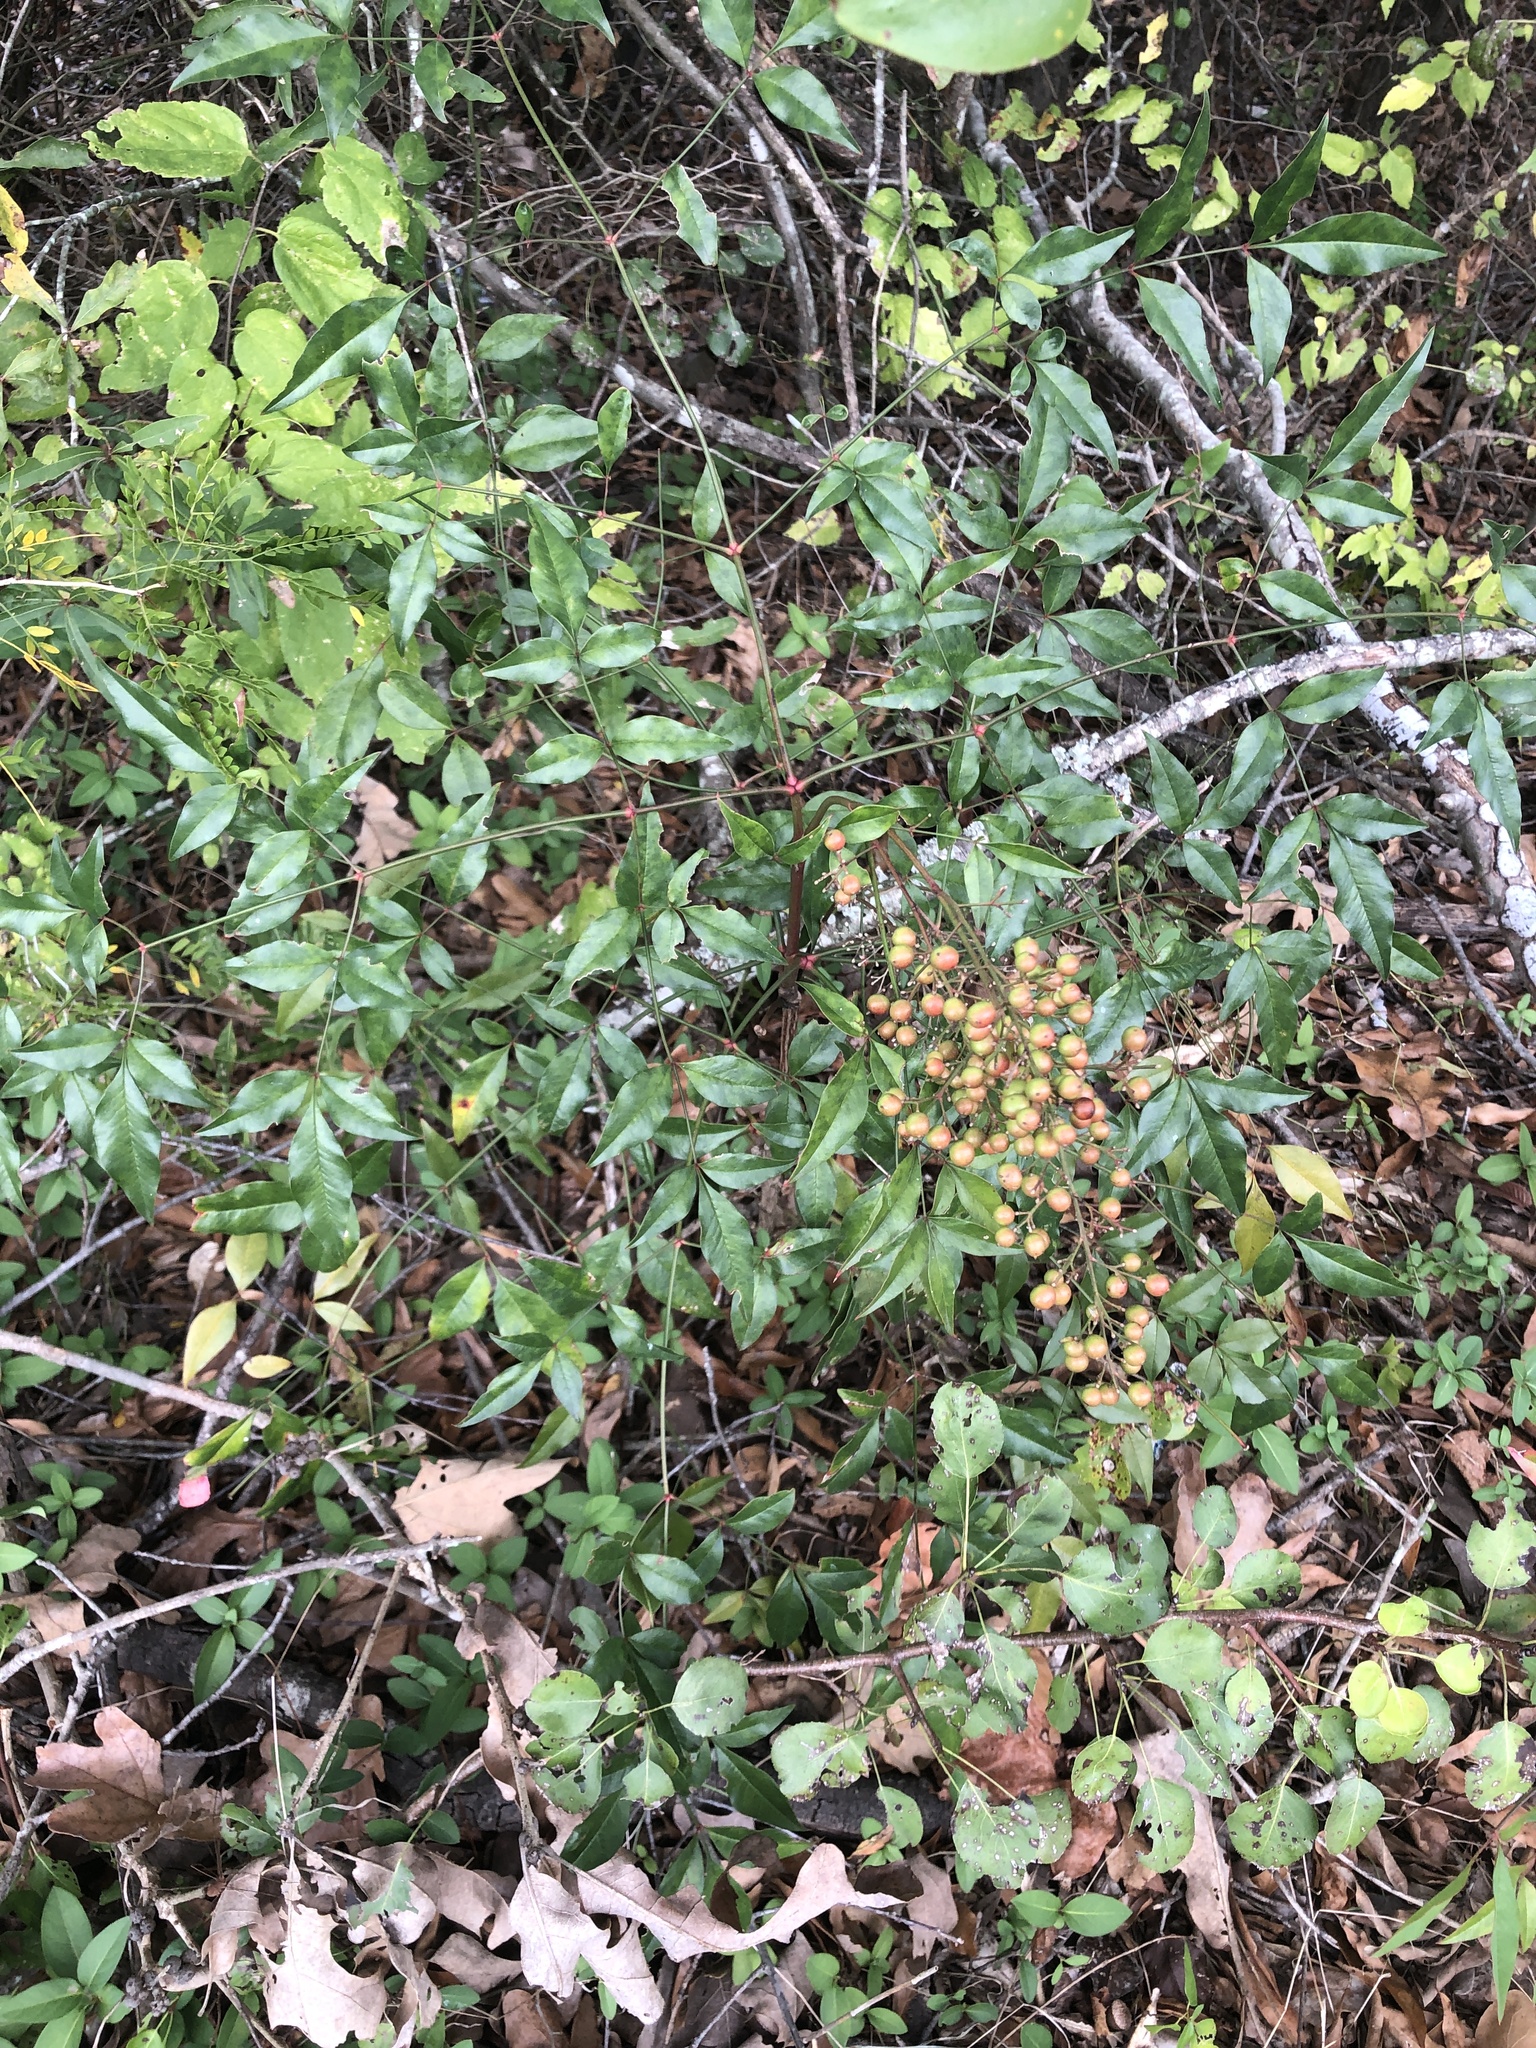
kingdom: Plantae
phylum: Tracheophyta
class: Magnoliopsida
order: Ranunculales
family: Berberidaceae
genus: Nandina
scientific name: Nandina domestica
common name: Sacred bamboo
